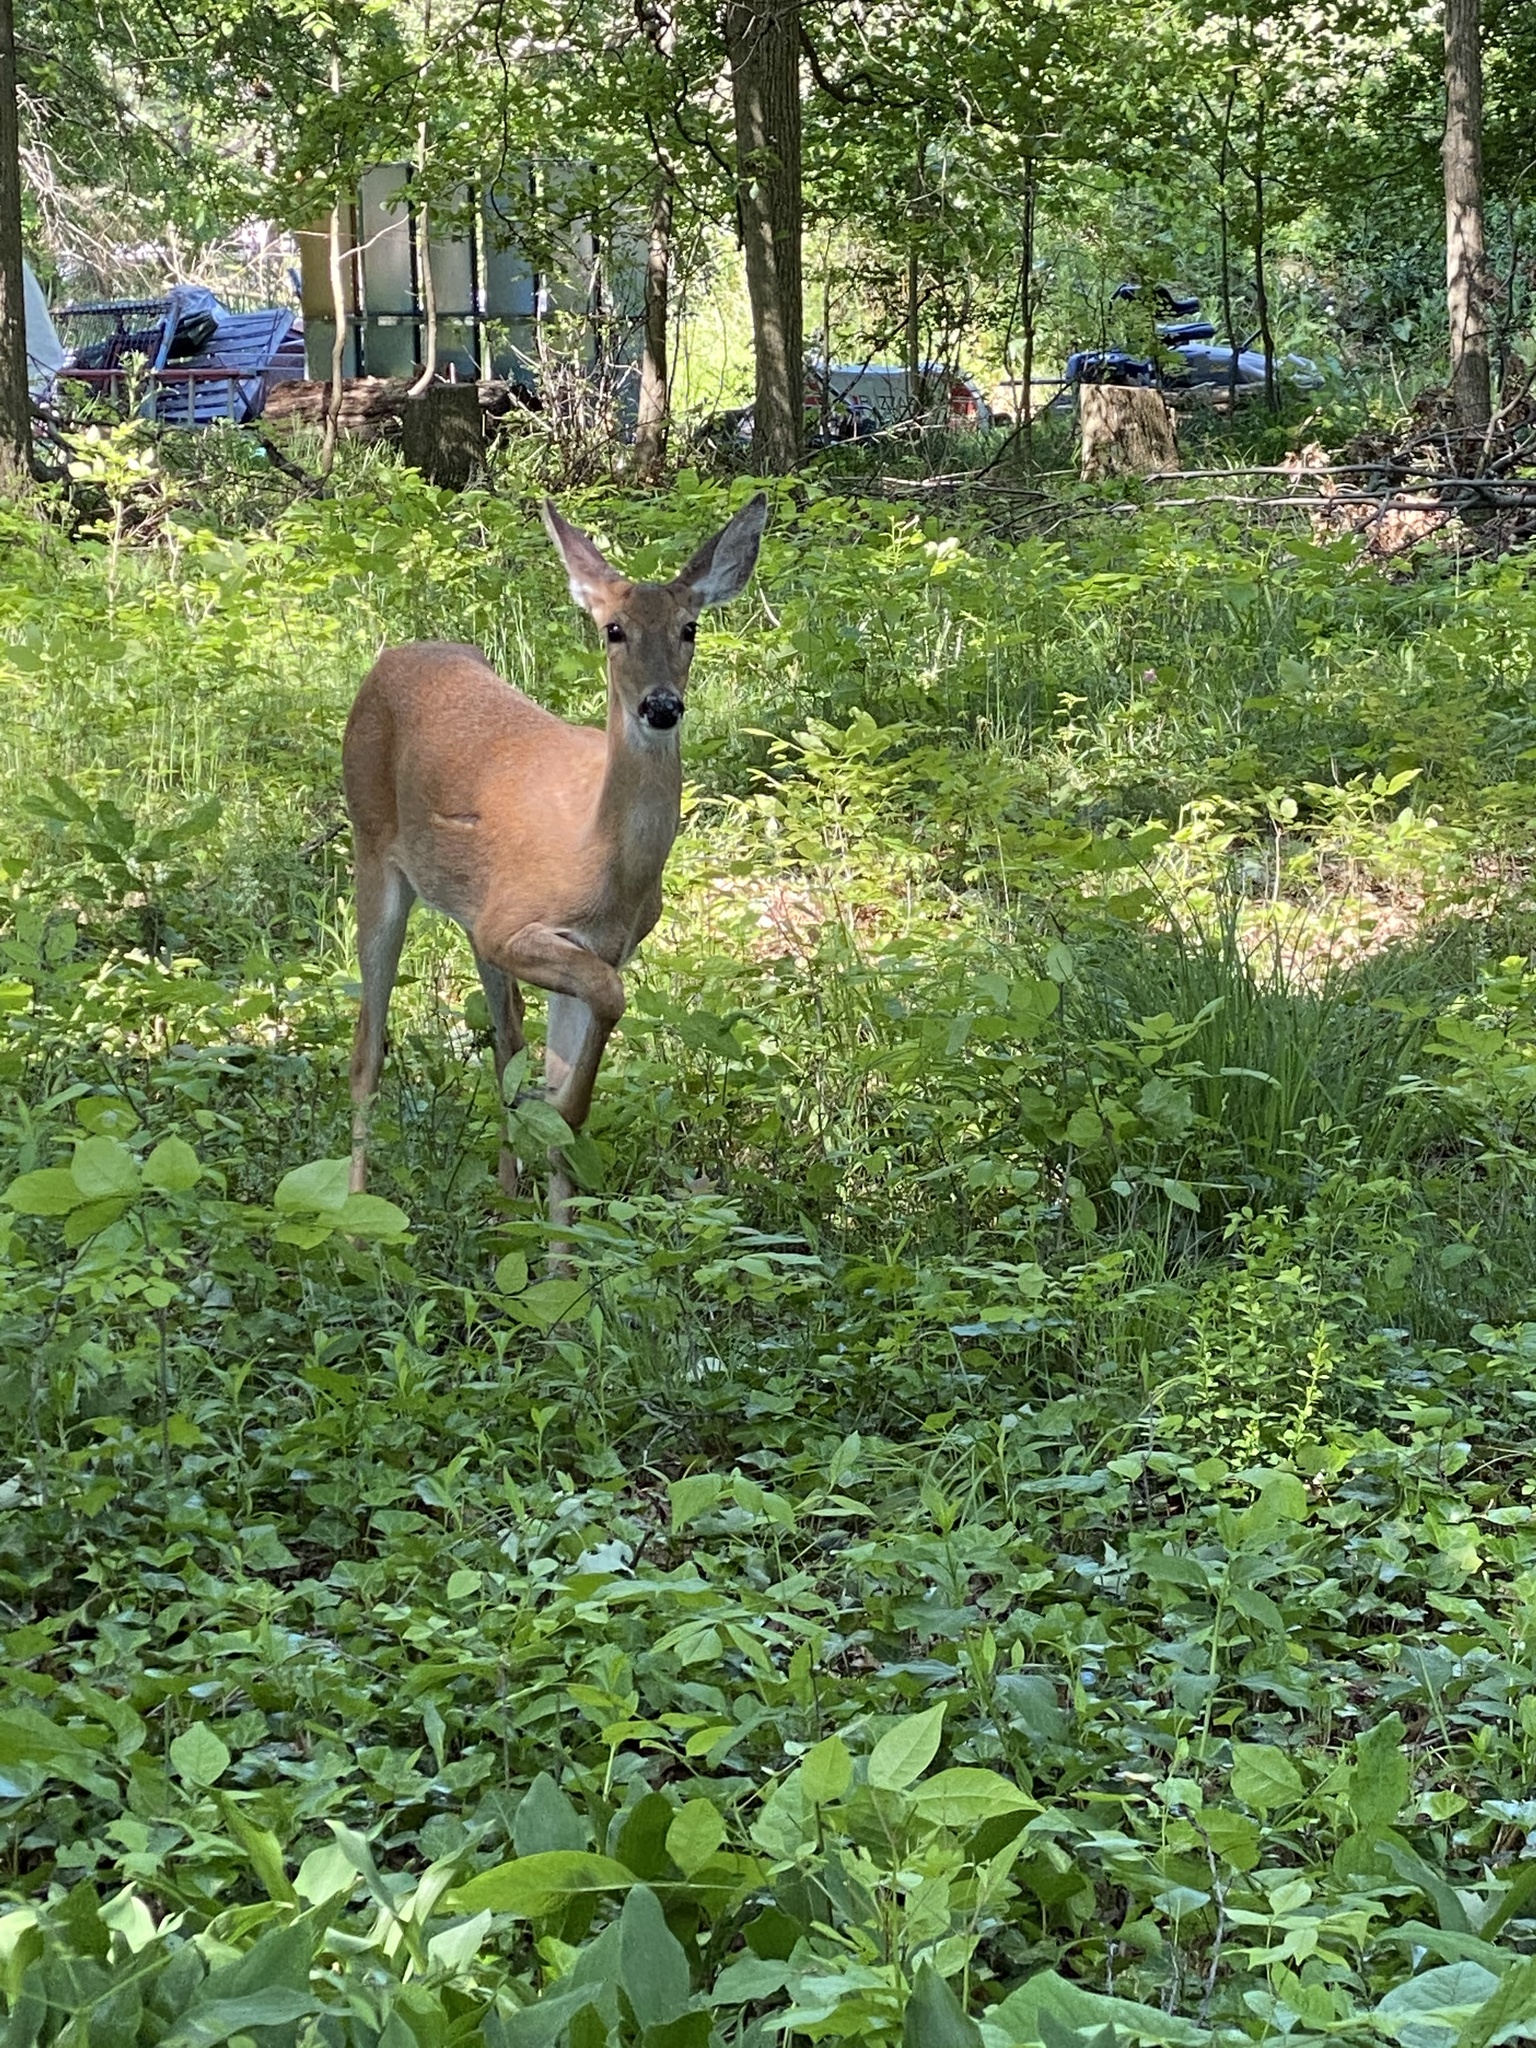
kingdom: Animalia
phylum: Chordata
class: Mammalia
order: Artiodactyla
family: Cervidae
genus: Odocoileus
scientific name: Odocoileus virginianus
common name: White-tailed deer
